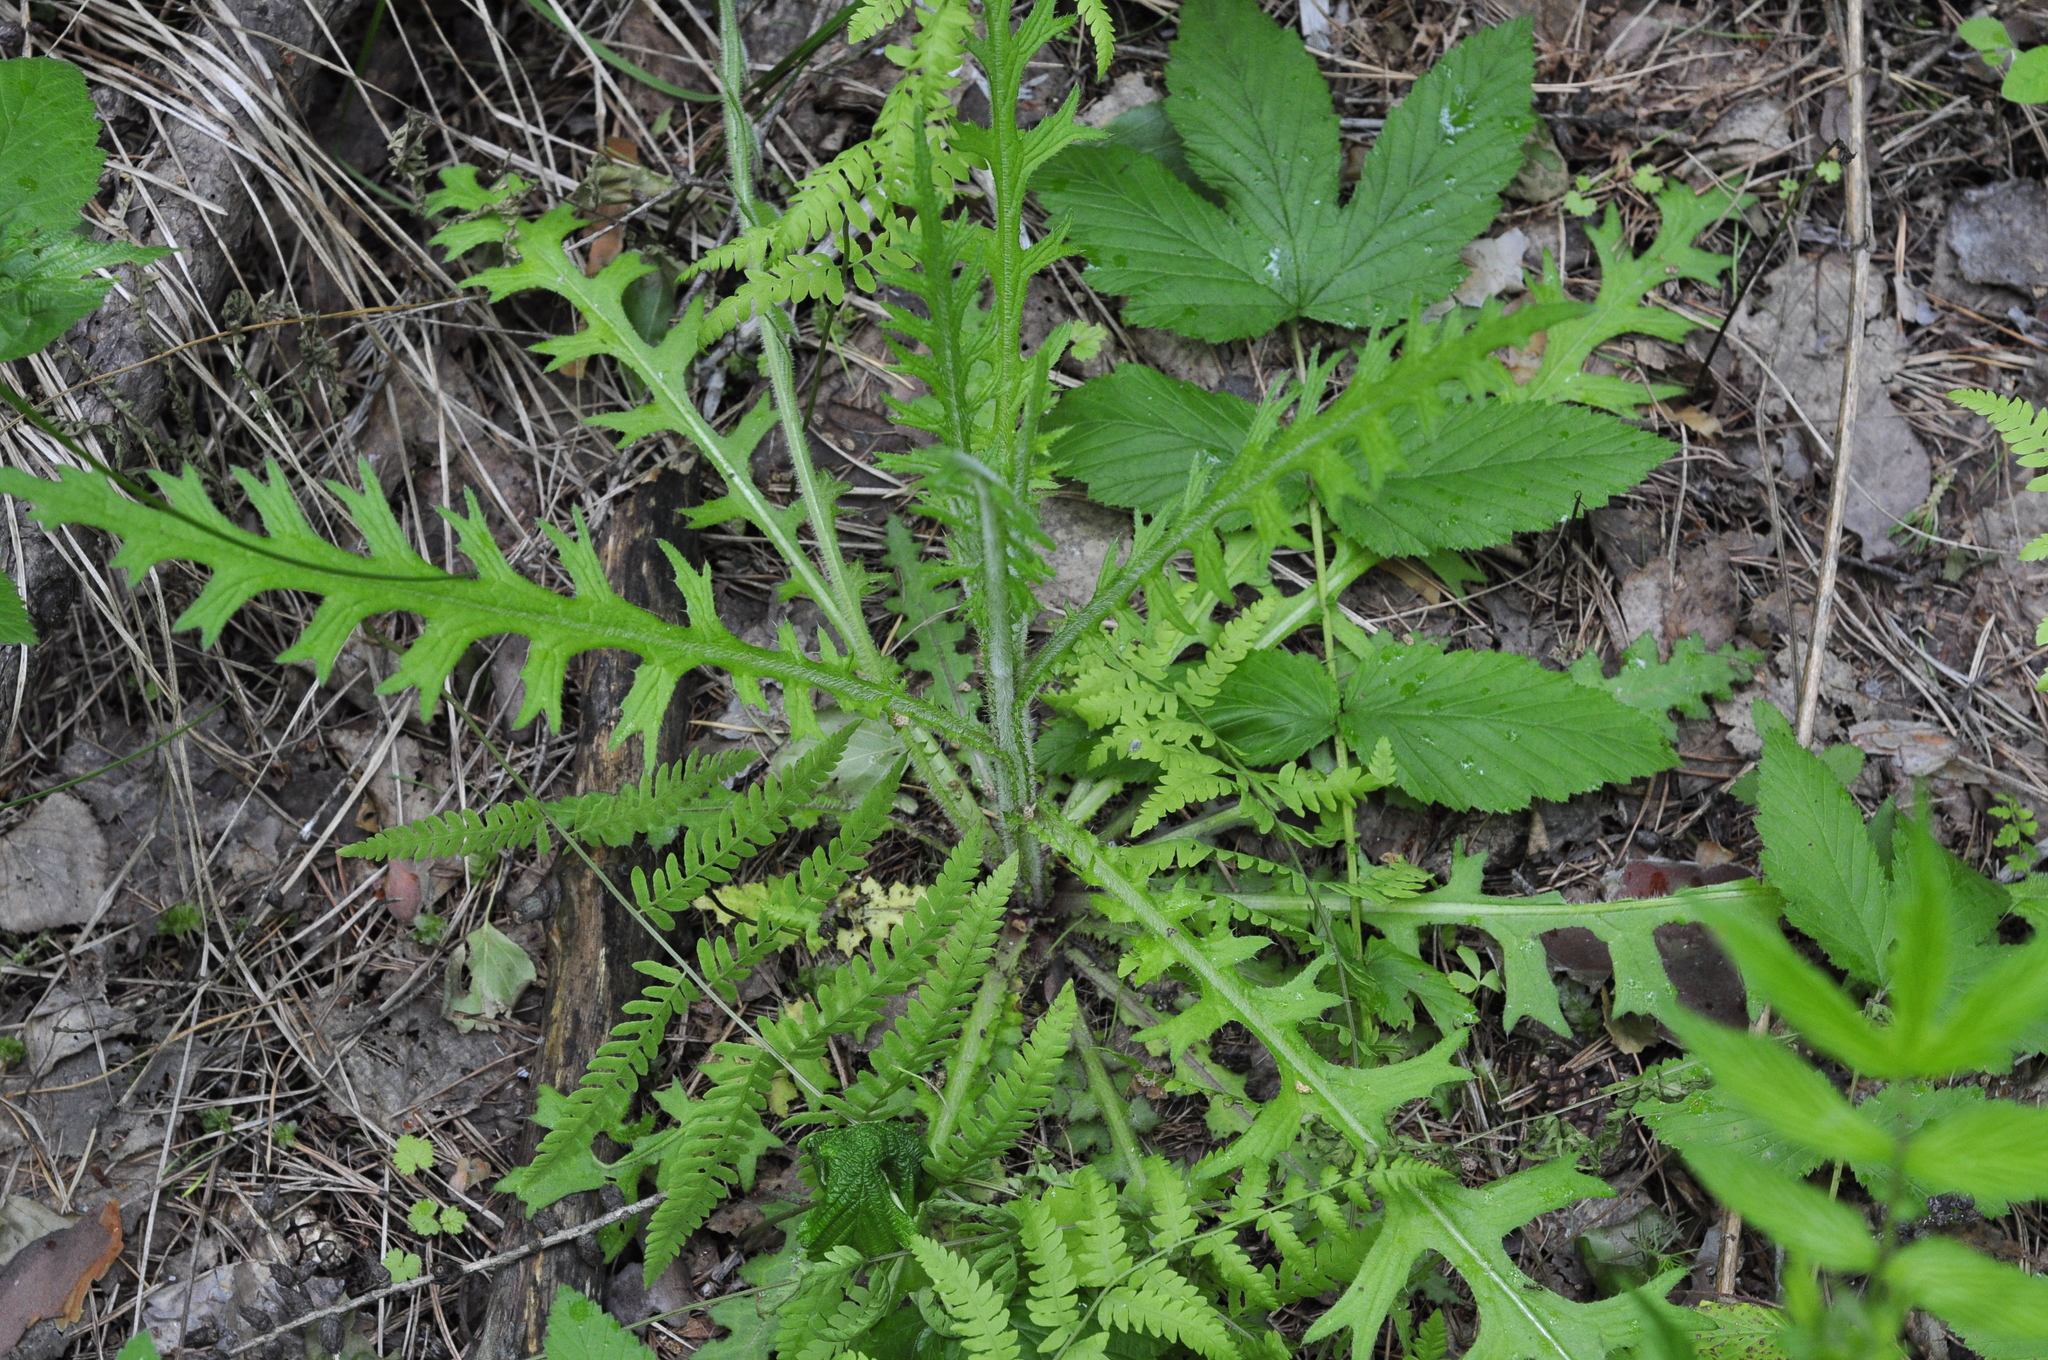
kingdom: Plantae
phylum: Tracheophyta
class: Magnoliopsida
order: Asterales
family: Asteraceae
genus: Cirsium
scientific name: Cirsium palustre
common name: Marsh thistle
